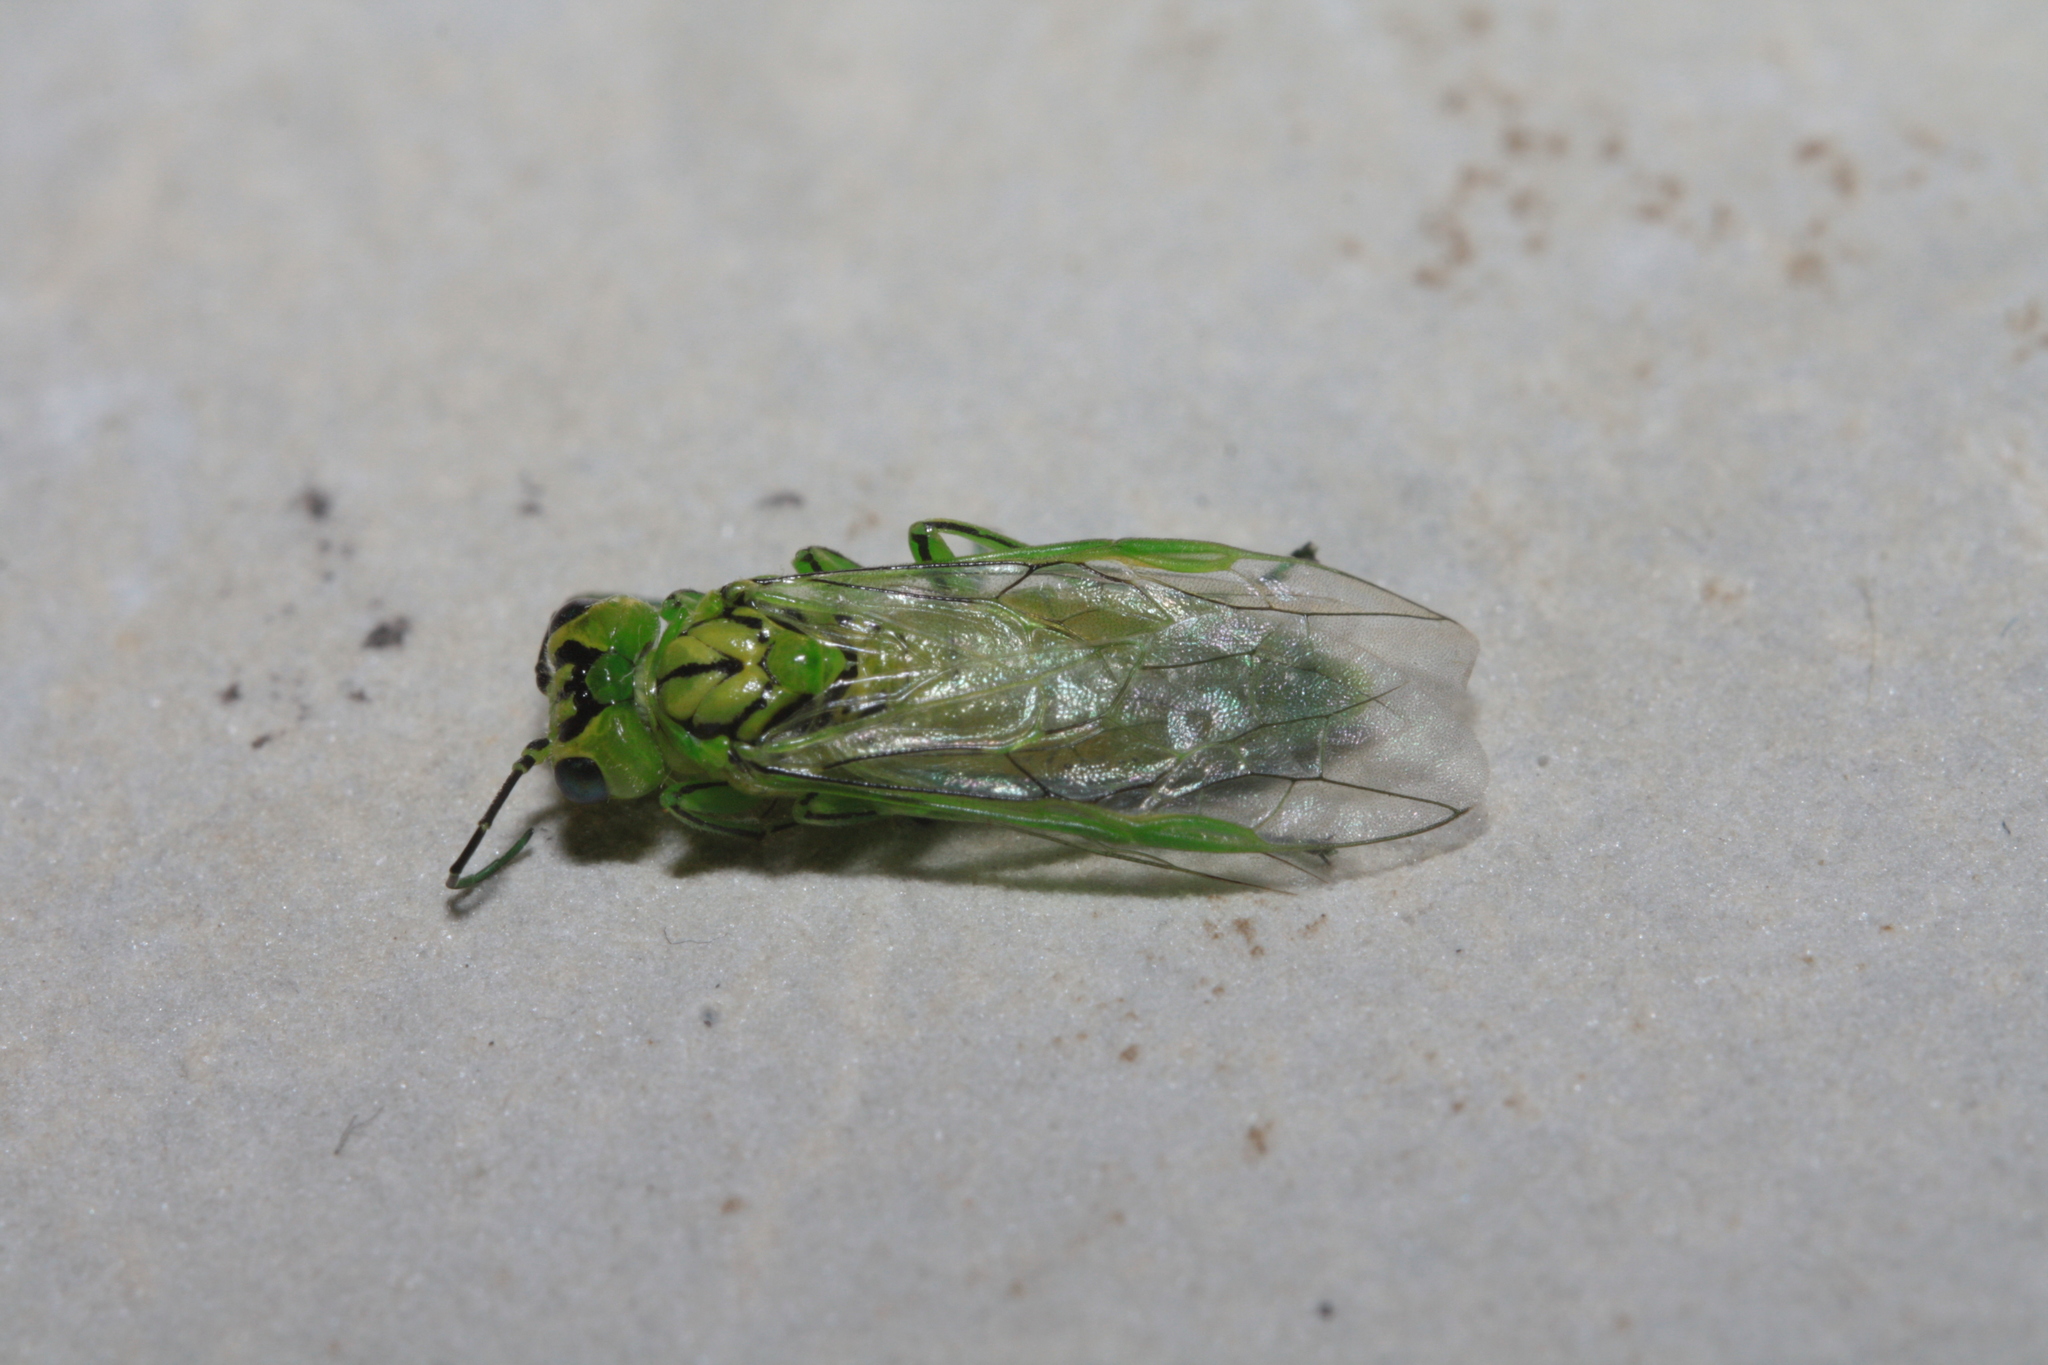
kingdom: Animalia
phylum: Arthropoda
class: Insecta
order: Hymenoptera
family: Tenthredinidae
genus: Rhogogaster
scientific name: Rhogogaster punctulata
